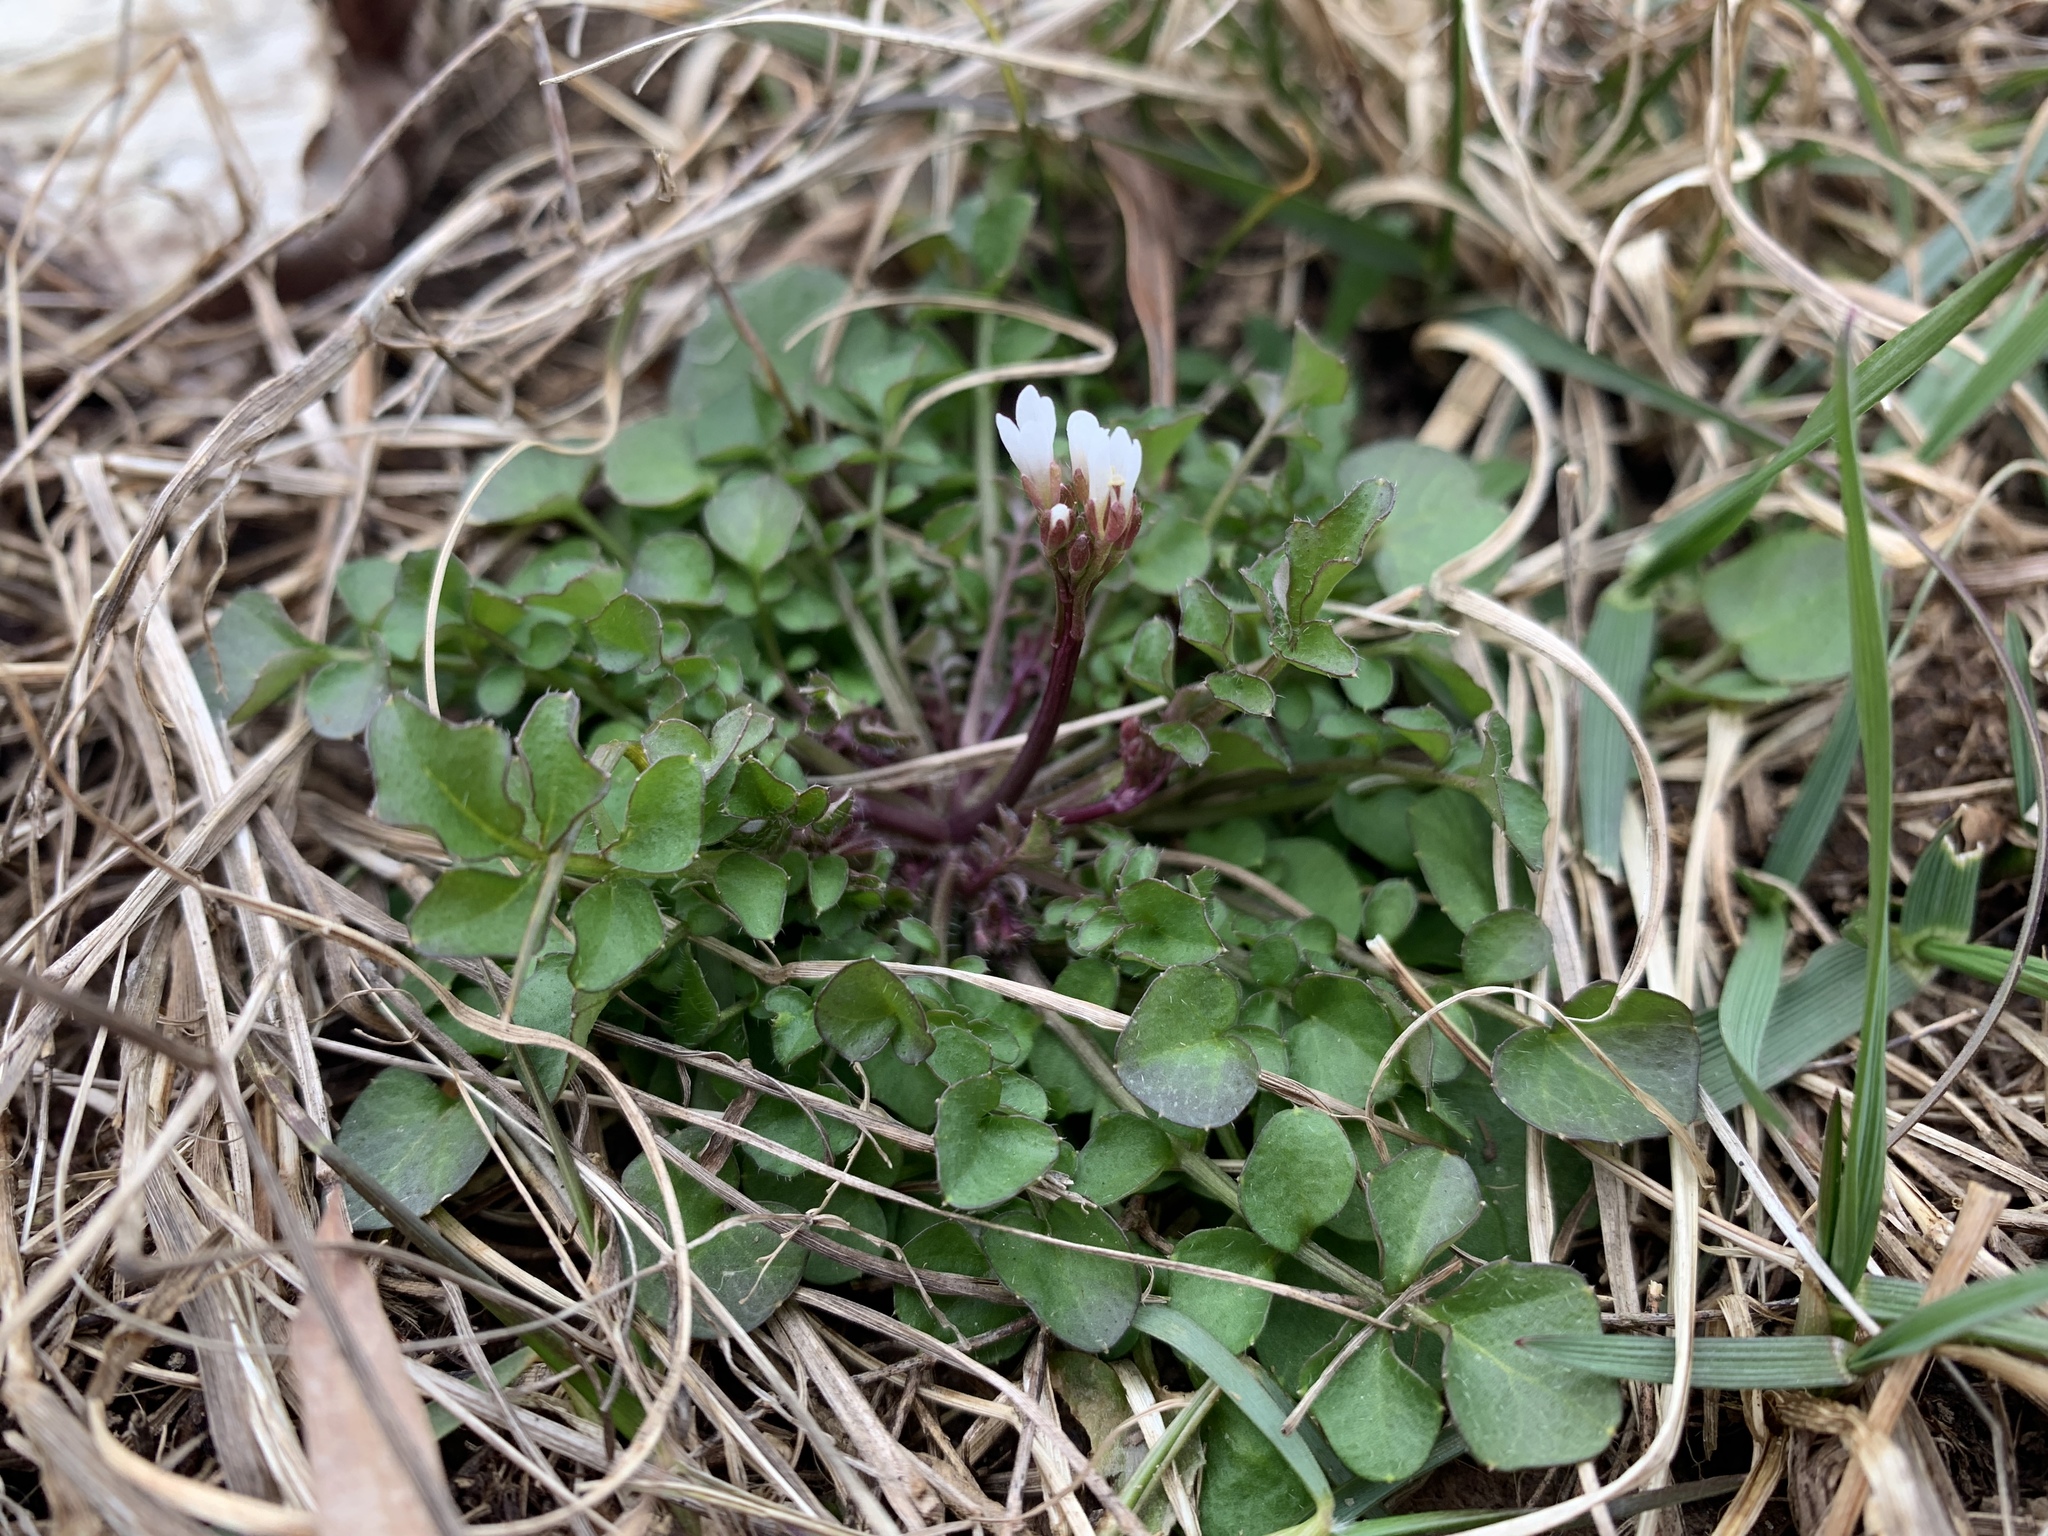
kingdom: Plantae
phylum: Tracheophyta
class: Magnoliopsida
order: Brassicales
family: Brassicaceae
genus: Cardamine
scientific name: Cardamine hirsuta
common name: Hairy bittercress
